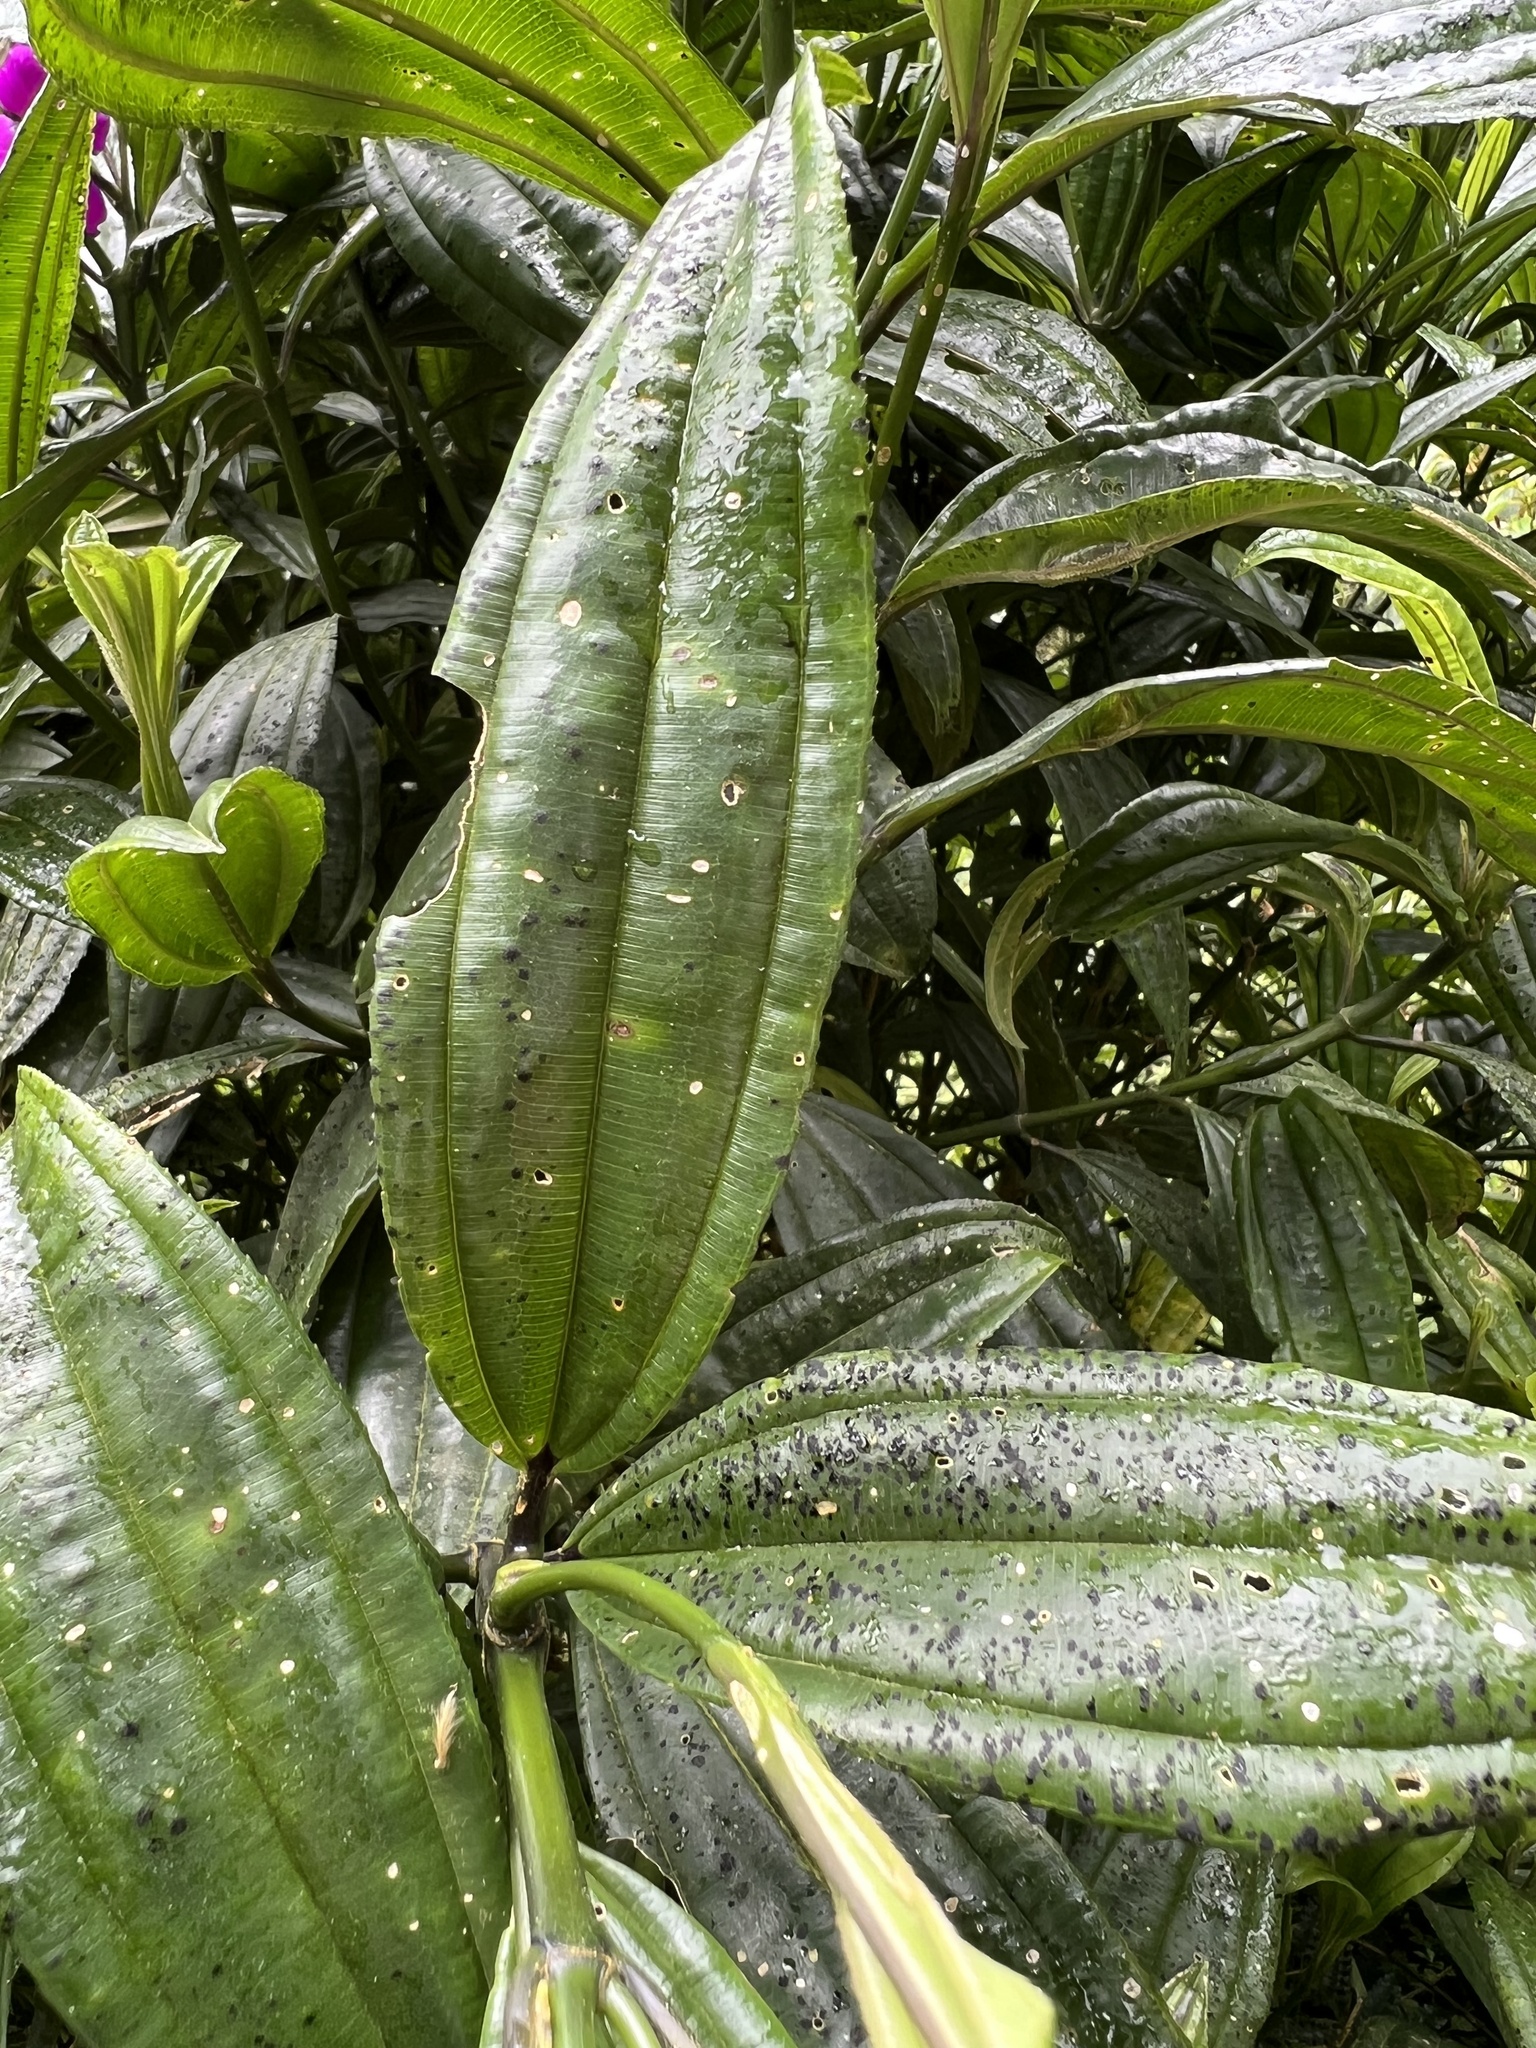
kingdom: Plantae
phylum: Tracheophyta
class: Magnoliopsida
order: Myrtales
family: Melastomataceae
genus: Meriania
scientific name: Meriania speciosa
